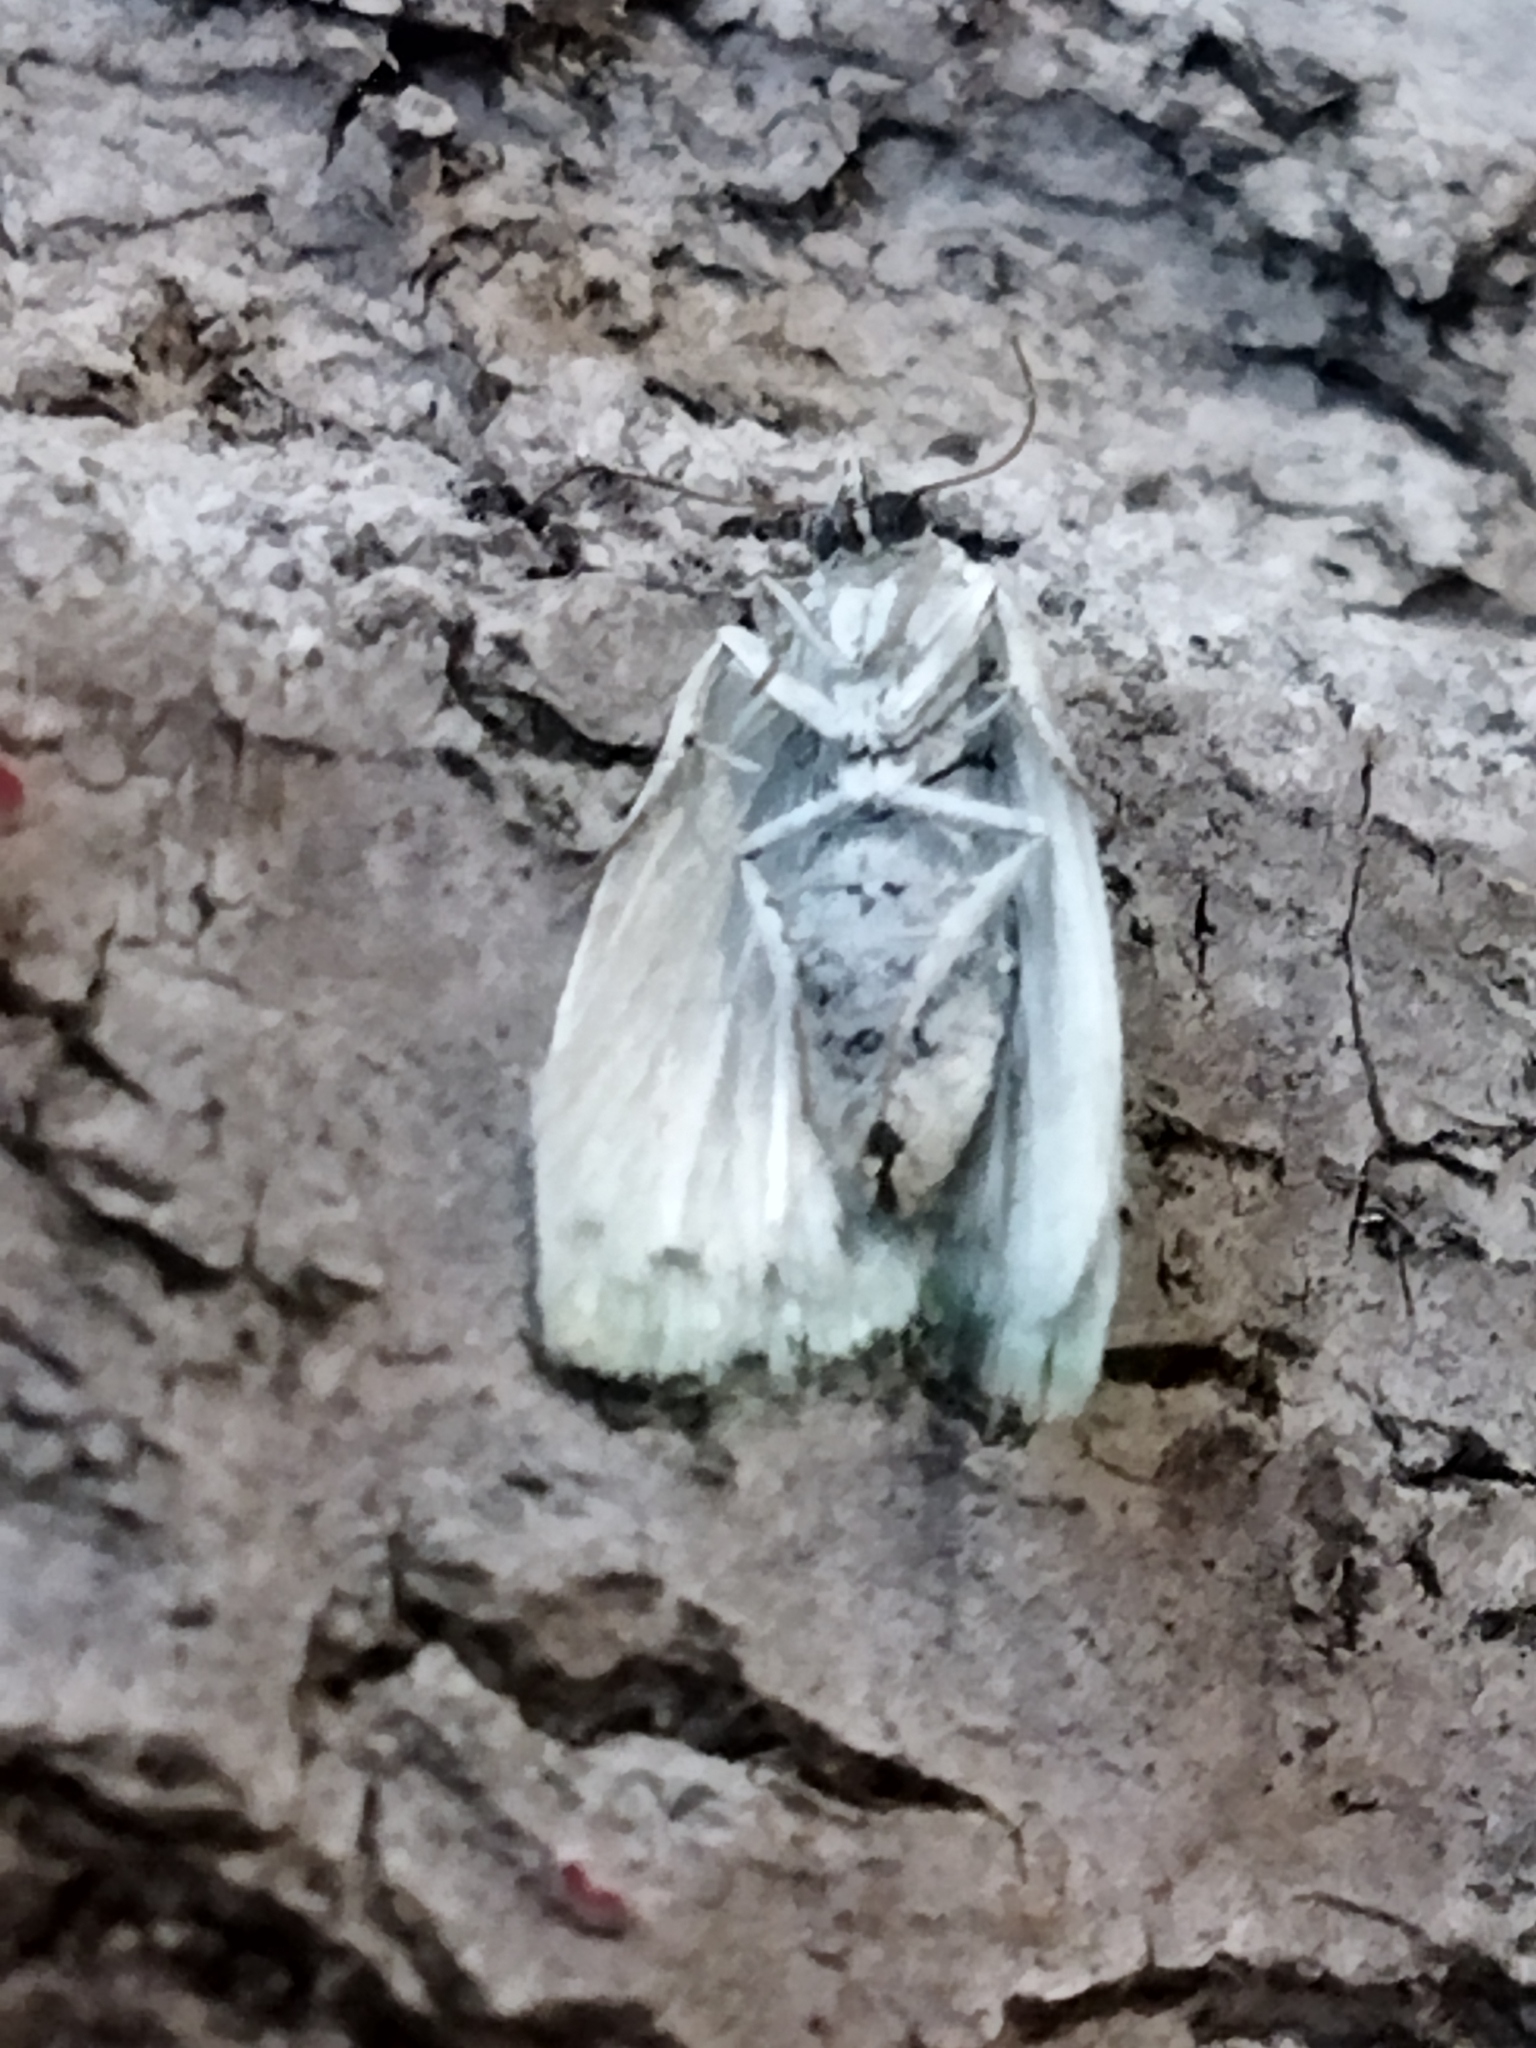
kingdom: Animalia
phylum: Arthropoda
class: Insecta
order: Lepidoptera
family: Nolidae
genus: Earias
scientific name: Earias clorana
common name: Cream-bordered green pea
